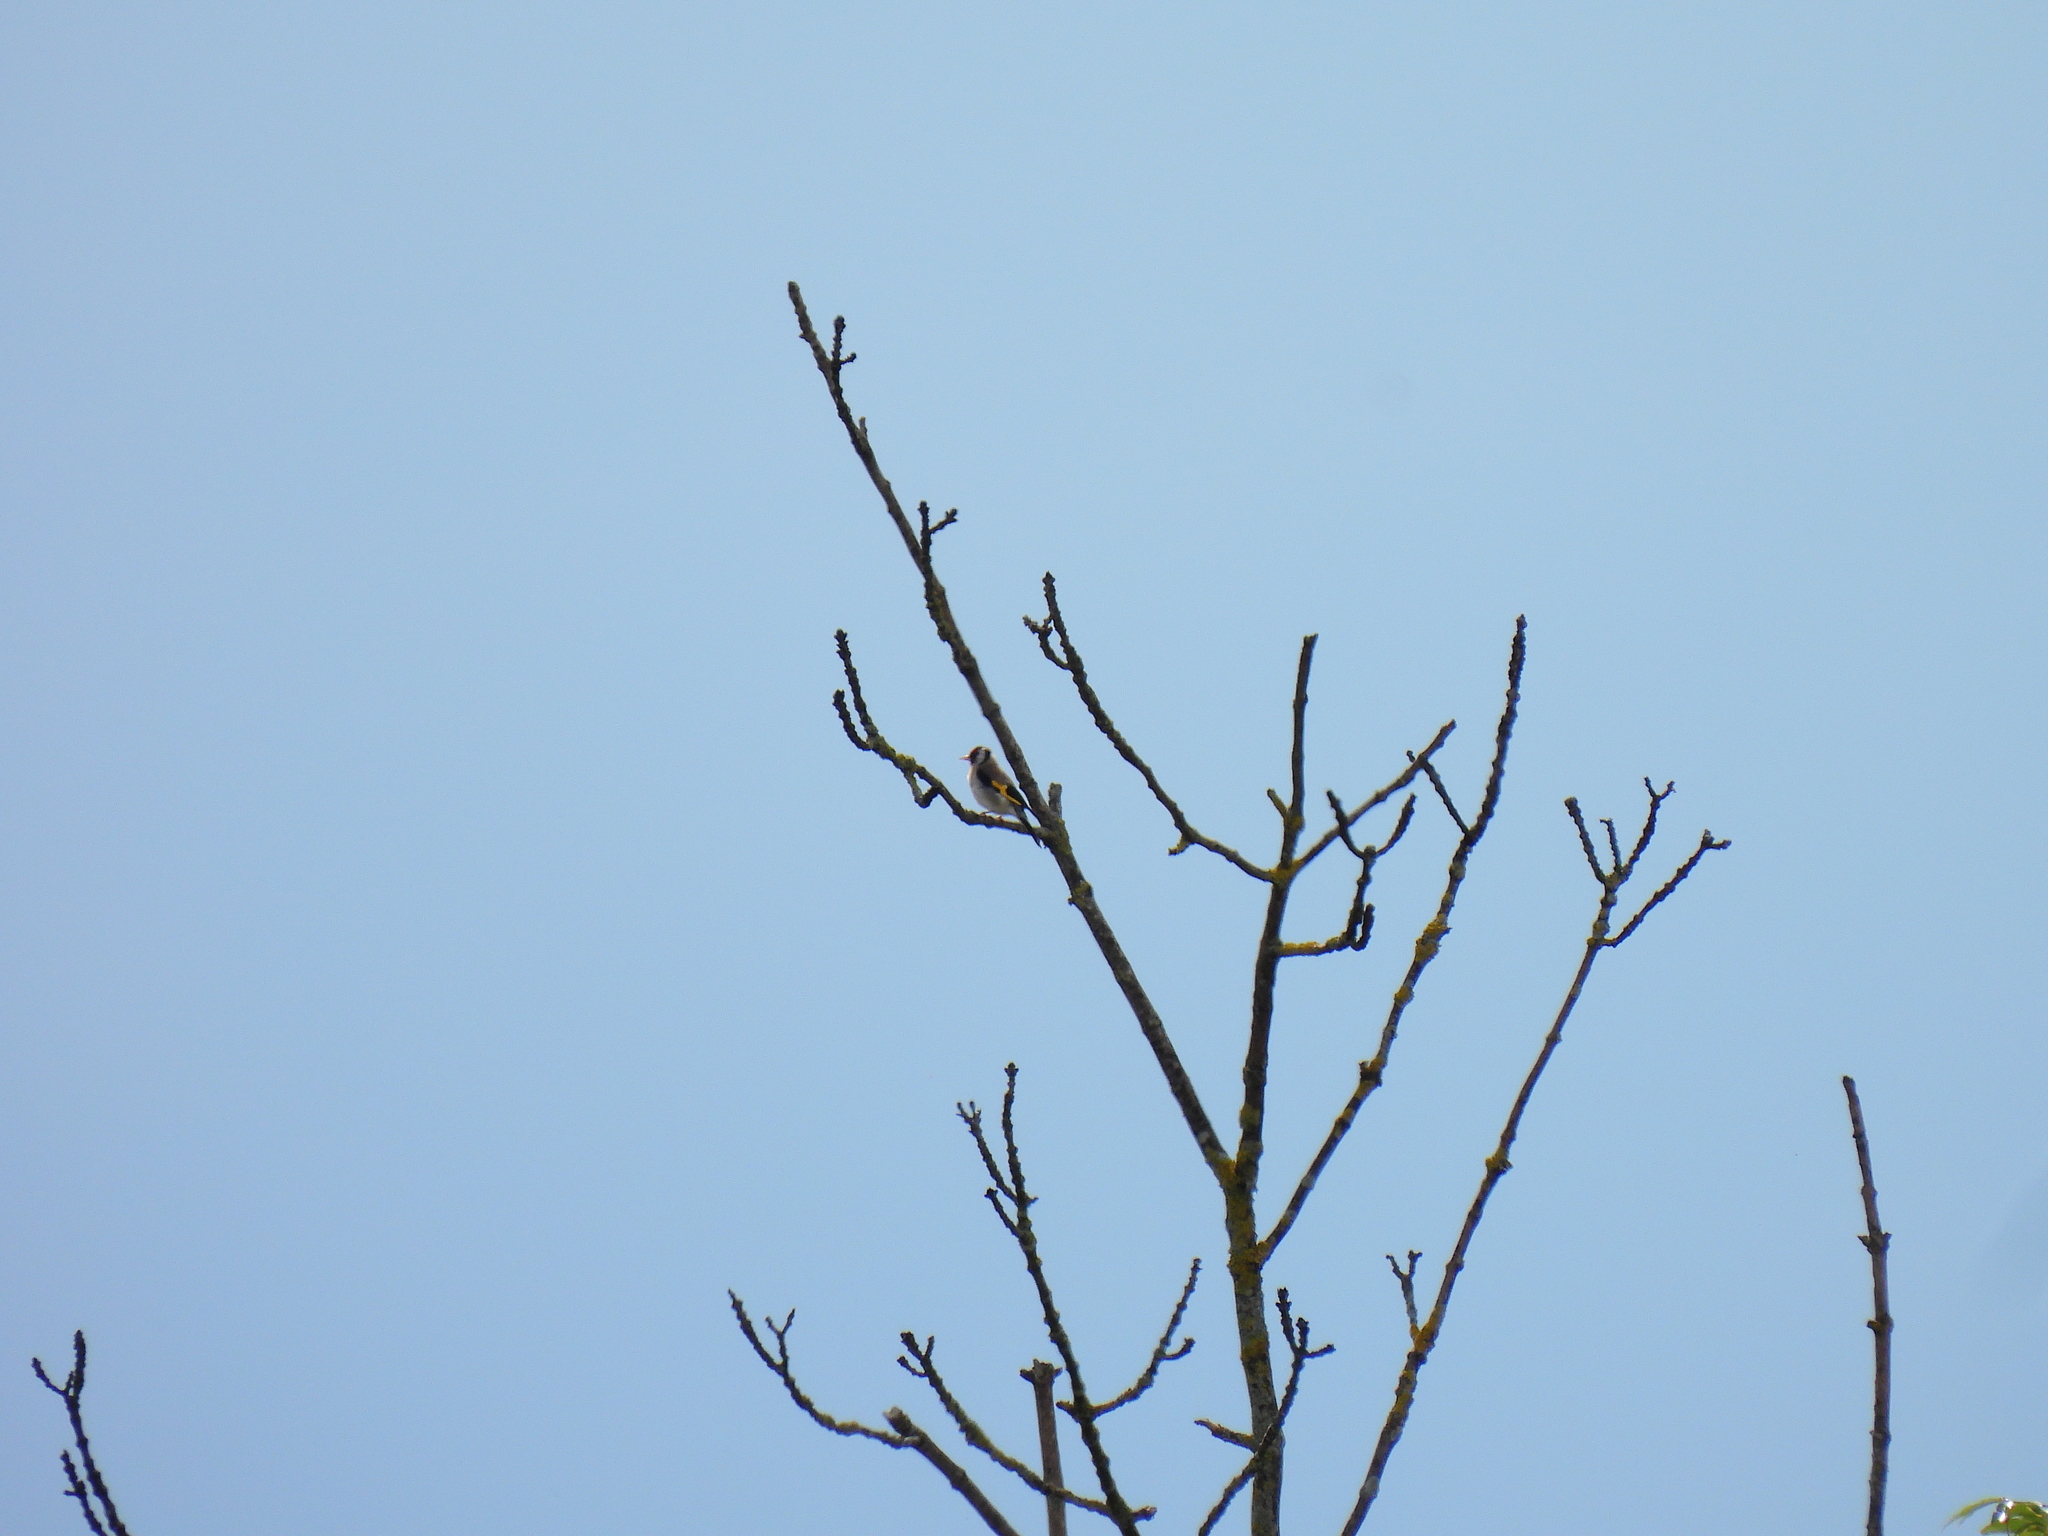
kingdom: Animalia
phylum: Chordata
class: Aves
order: Passeriformes
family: Fringillidae
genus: Carduelis
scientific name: Carduelis carduelis
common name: European goldfinch
